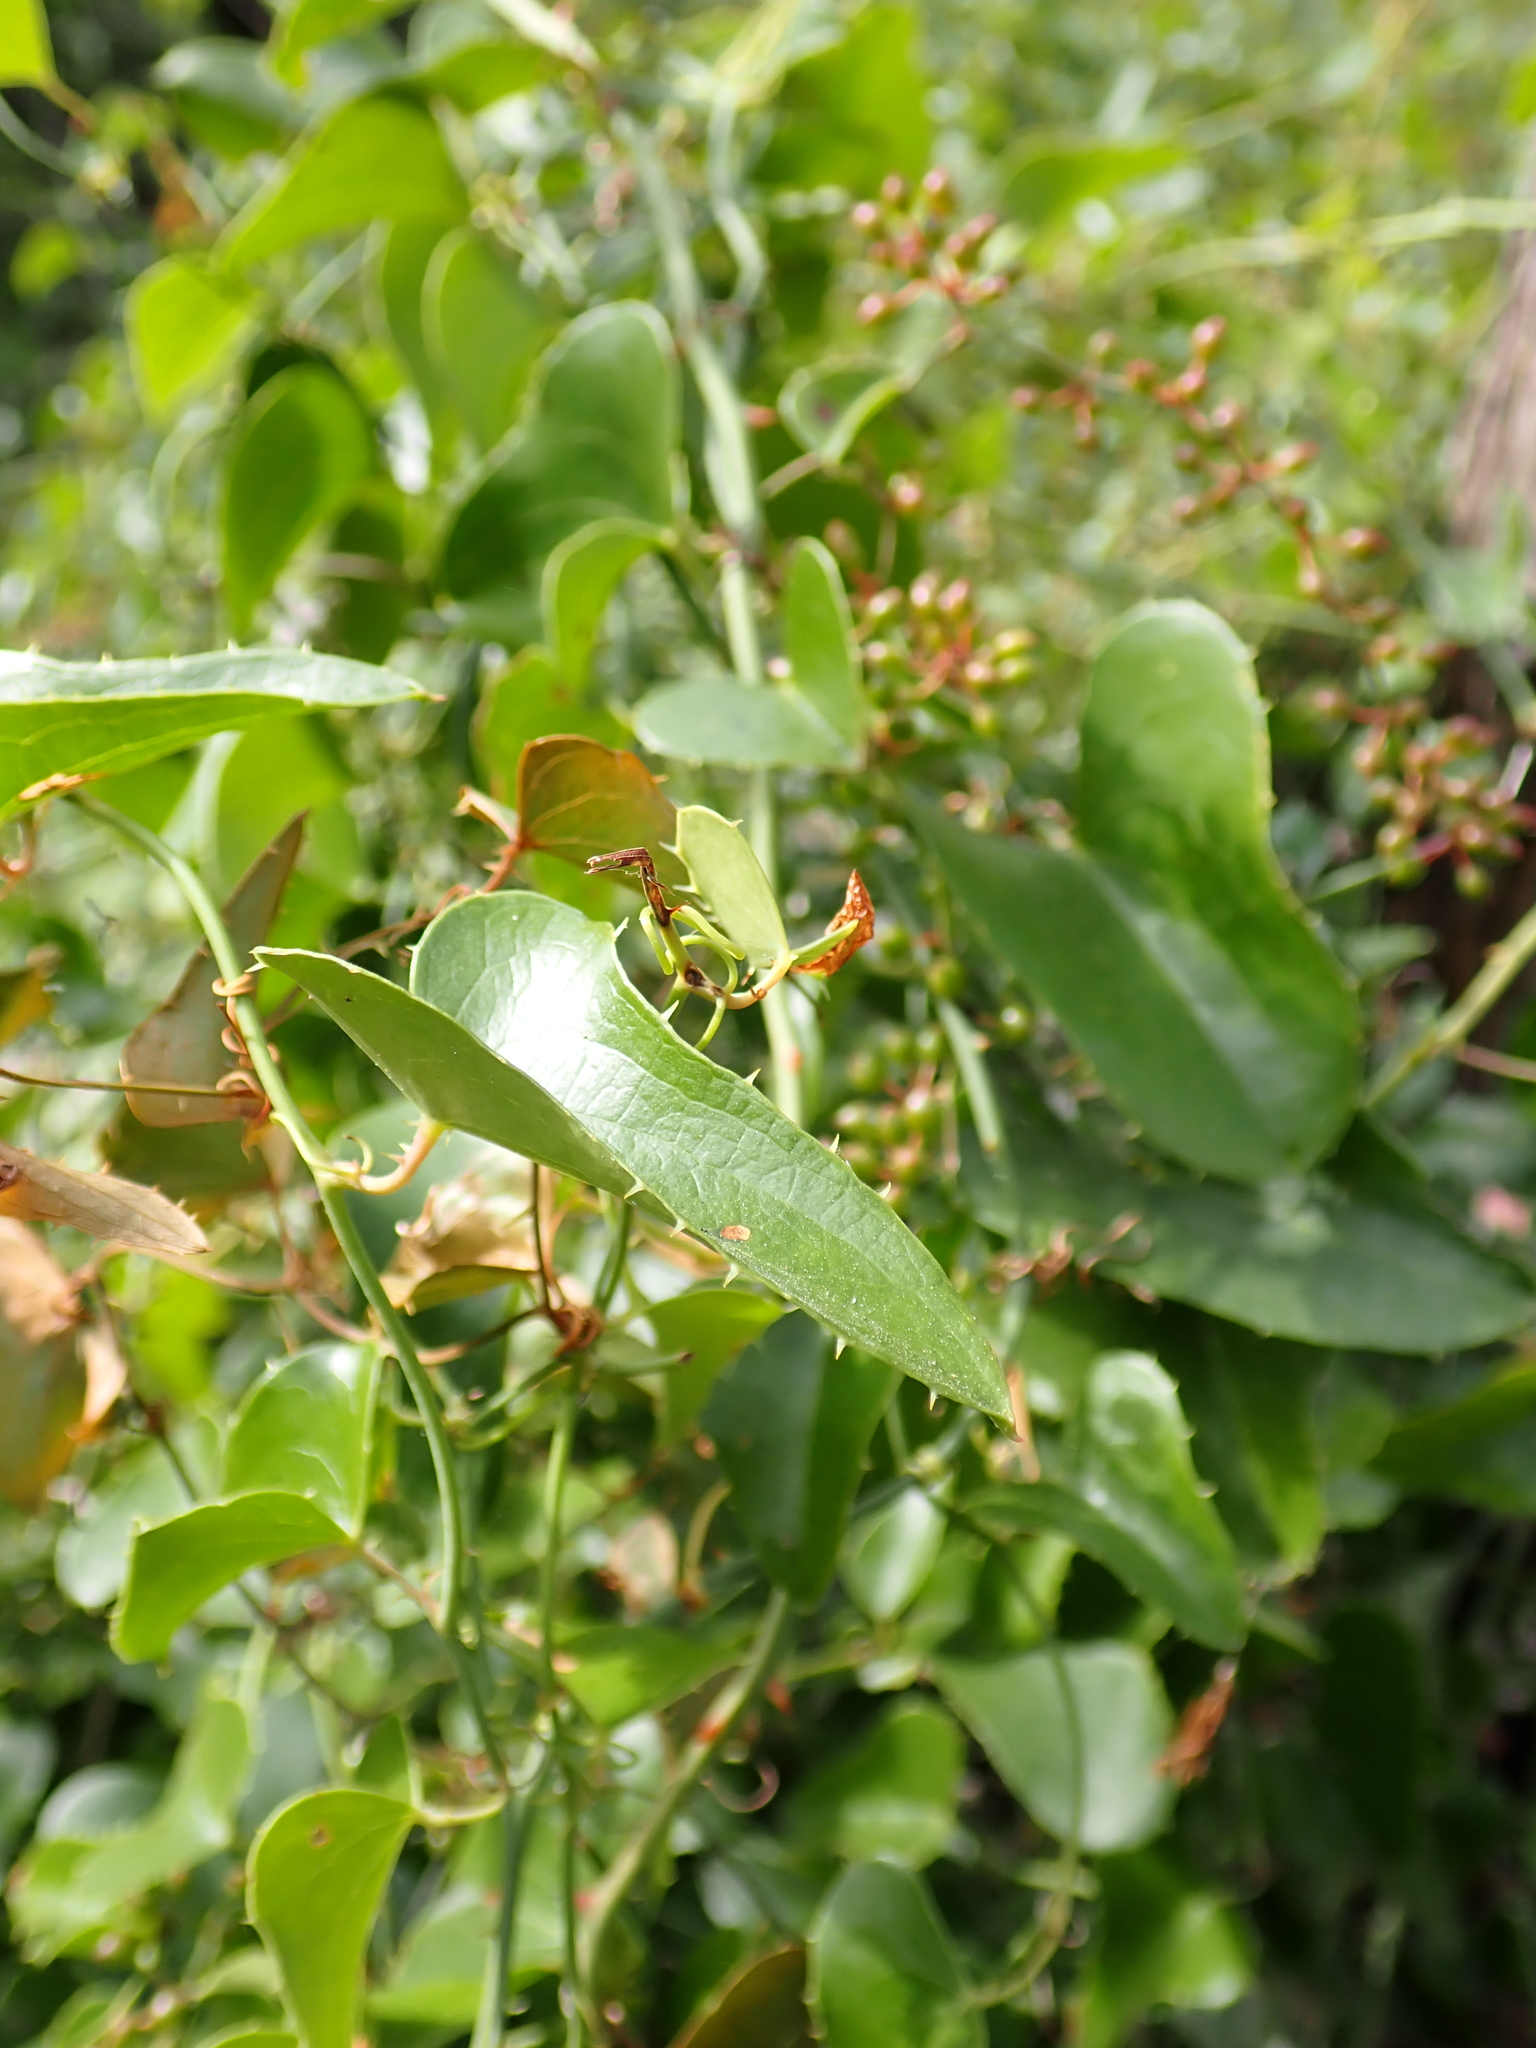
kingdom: Plantae
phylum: Tracheophyta
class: Liliopsida
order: Liliales
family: Smilacaceae
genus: Smilax
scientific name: Smilax aspera
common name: Common smilax
